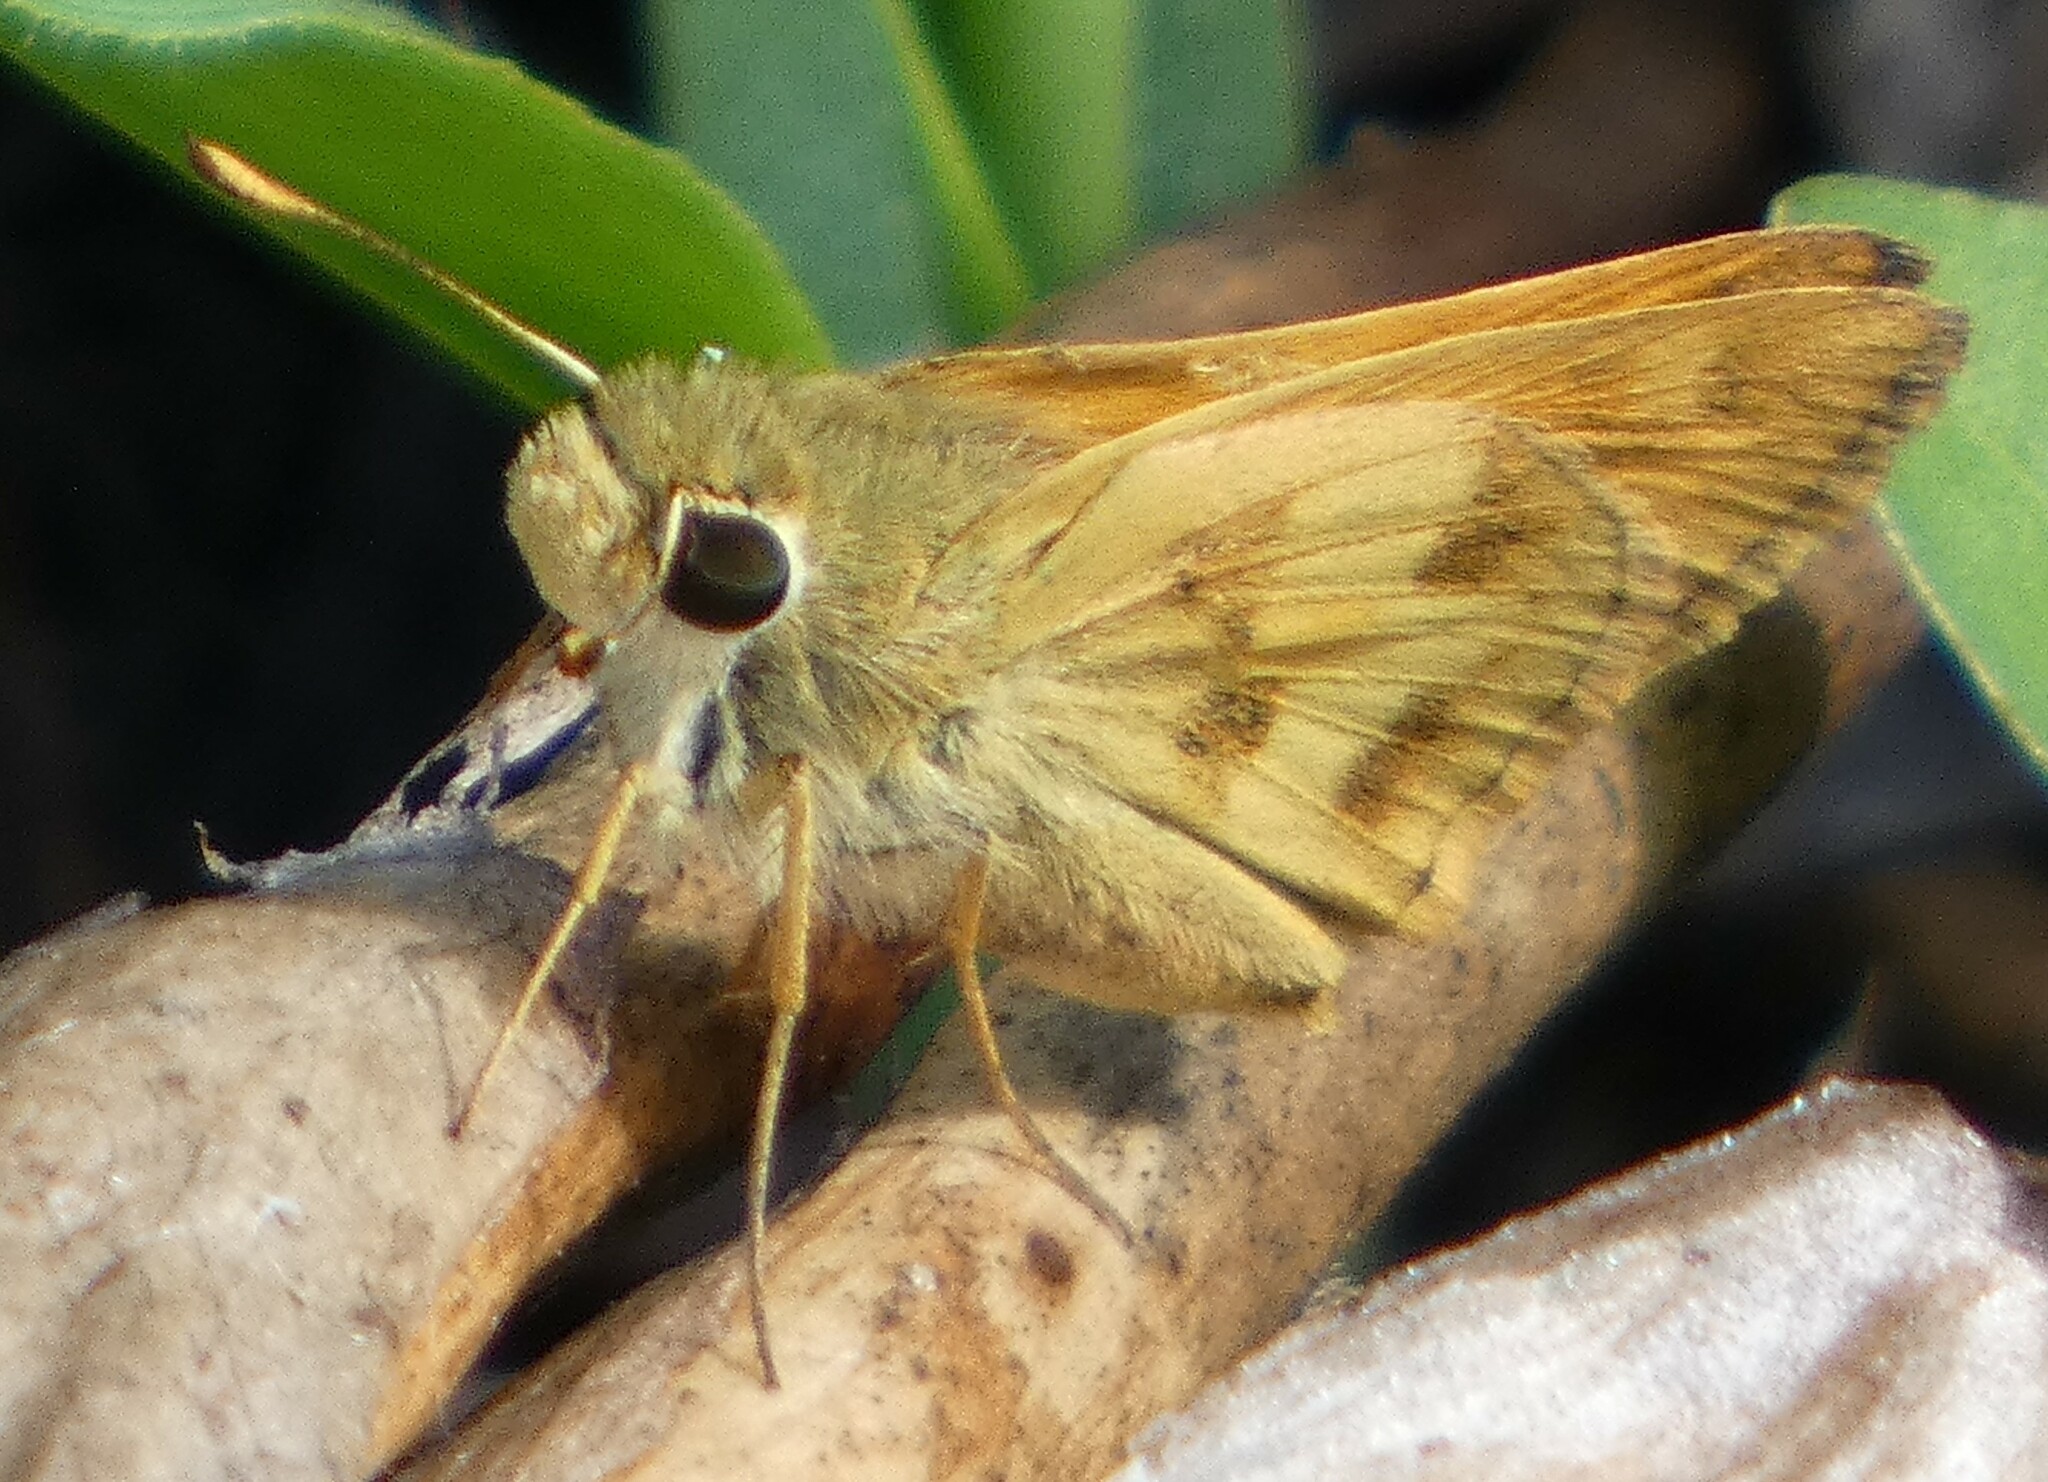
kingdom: Animalia
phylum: Arthropoda
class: Insecta
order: Lepidoptera
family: Hesperiidae
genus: Polites
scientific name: Polites vibex
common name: Whirlabout
